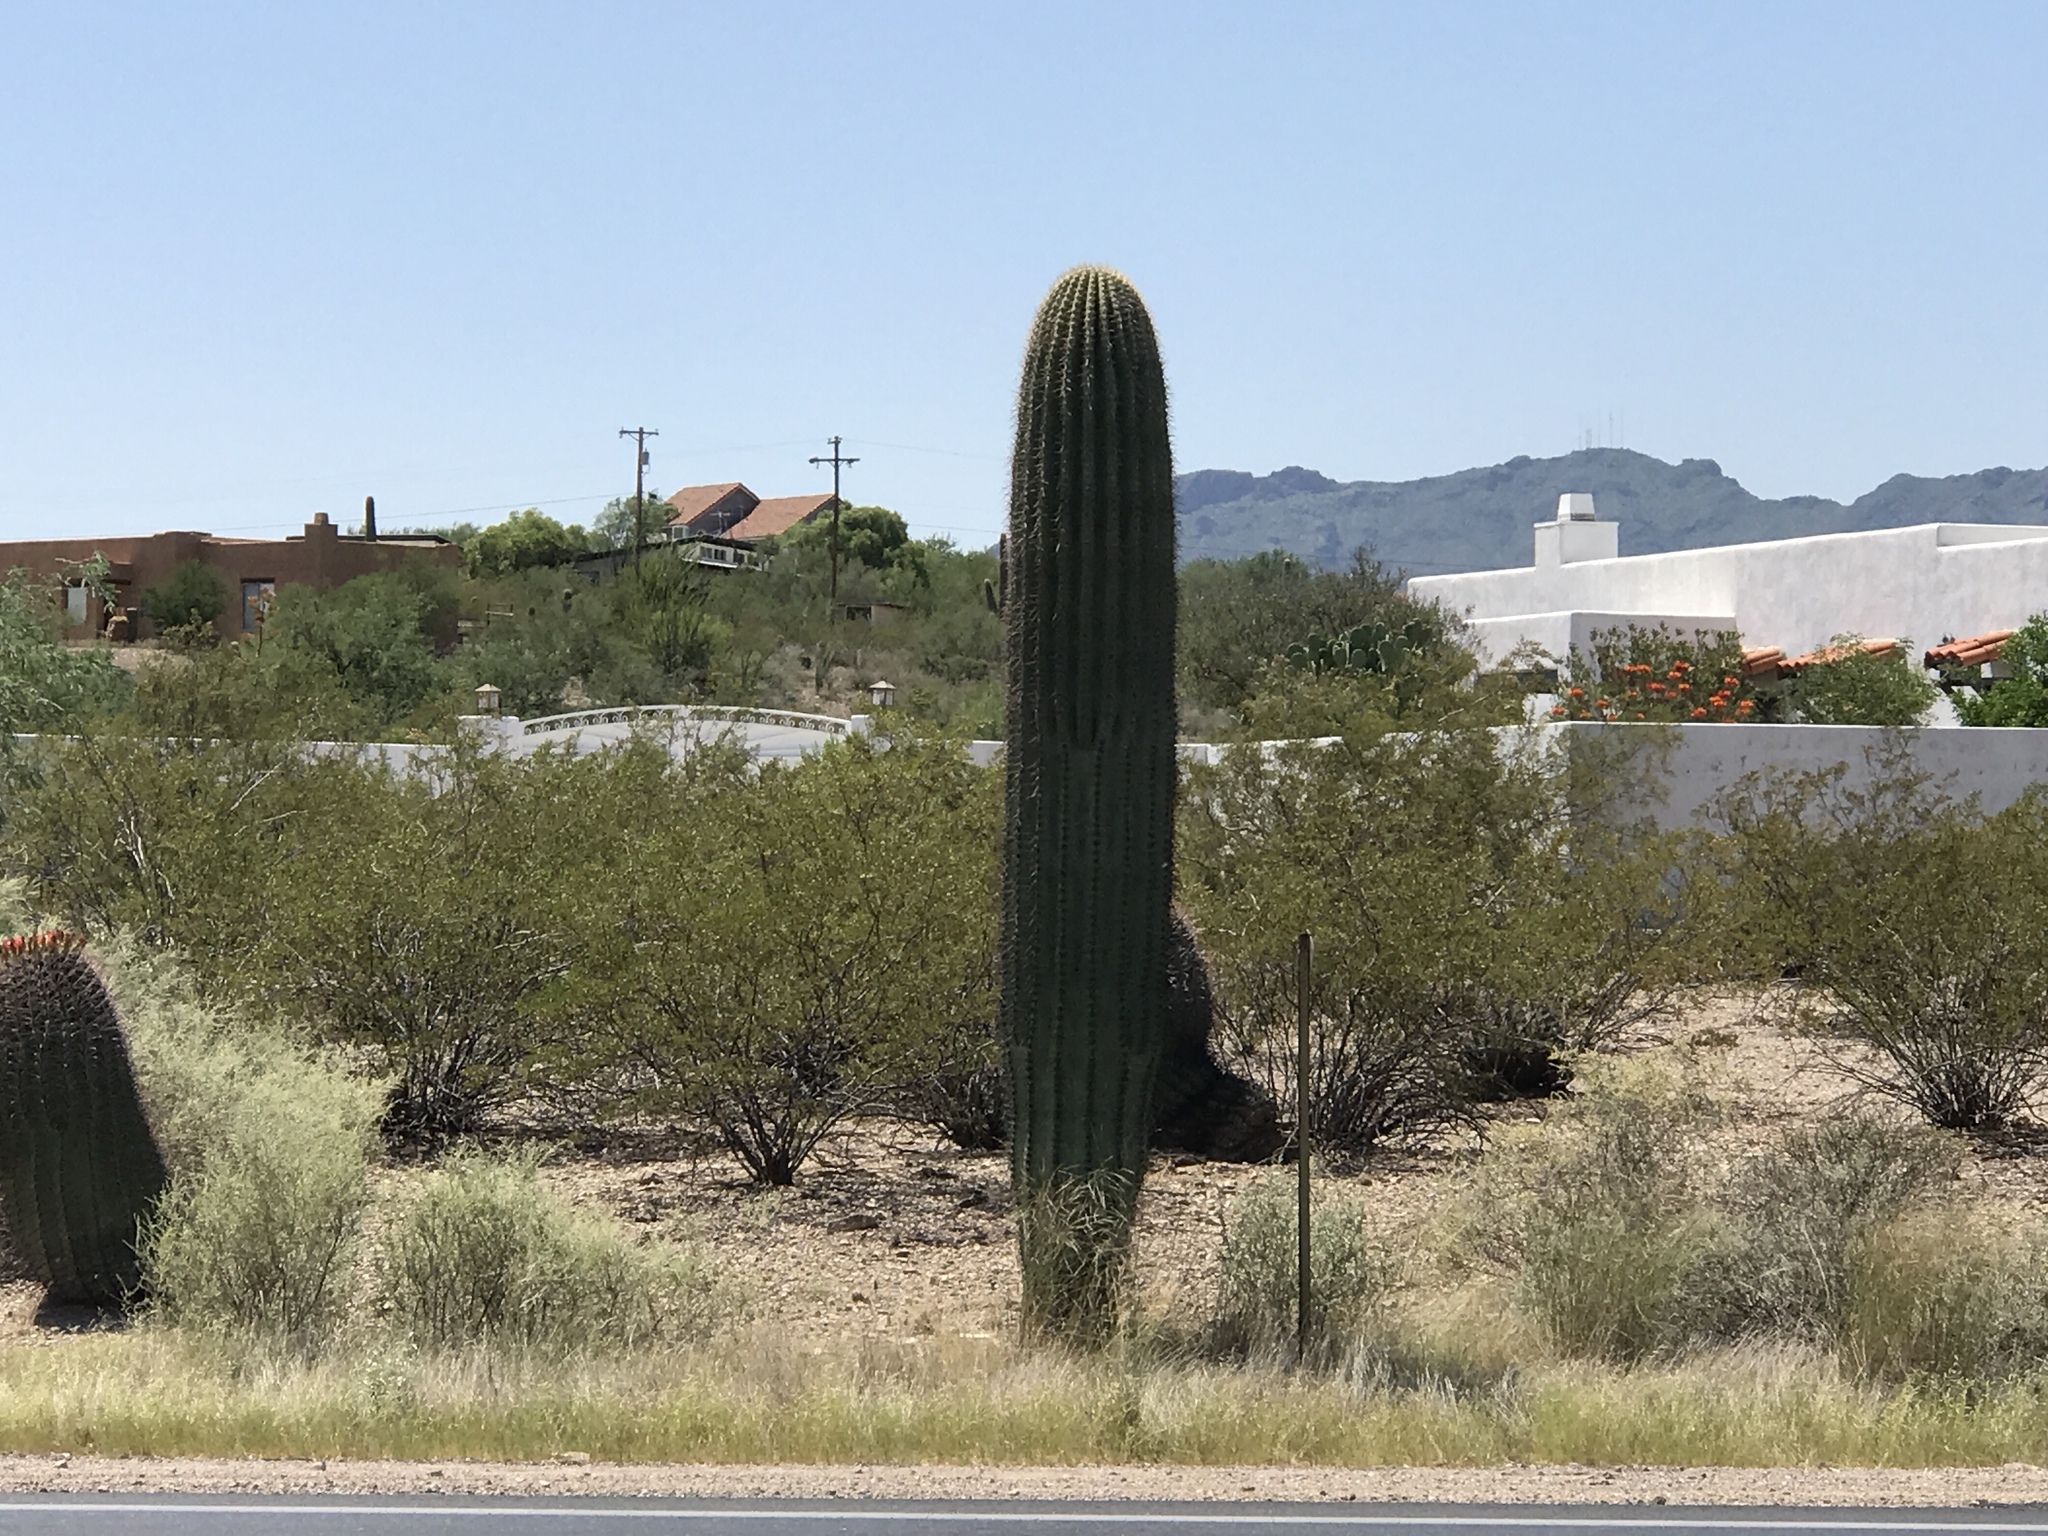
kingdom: Plantae
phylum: Tracheophyta
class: Magnoliopsida
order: Caryophyllales
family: Cactaceae
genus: Carnegiea
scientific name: Carnegiea gigantea
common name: Saguaro
